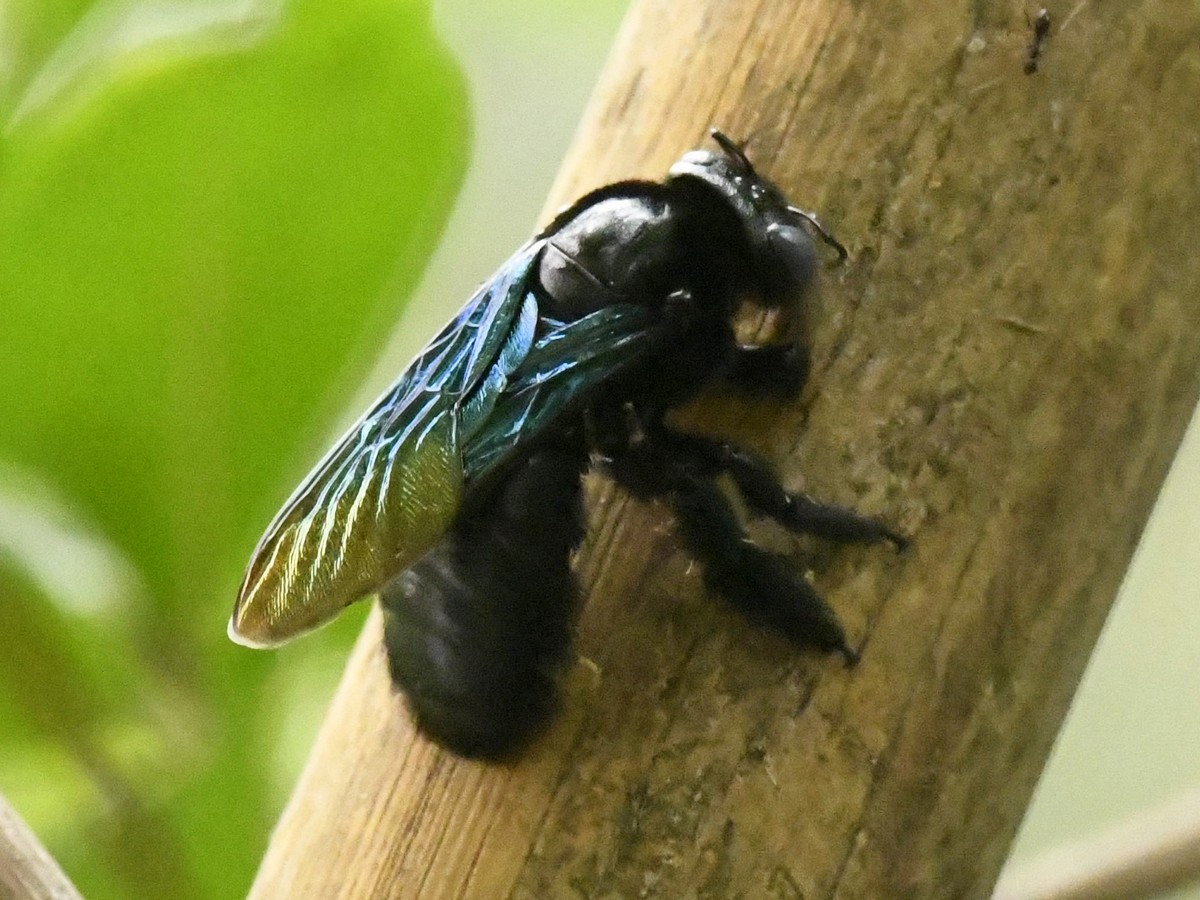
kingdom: Animalia
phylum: Arthropoda
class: Insecta
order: Hymenoptera
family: Apidae
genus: Xylocopa
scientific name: Xylocopa auripennis
